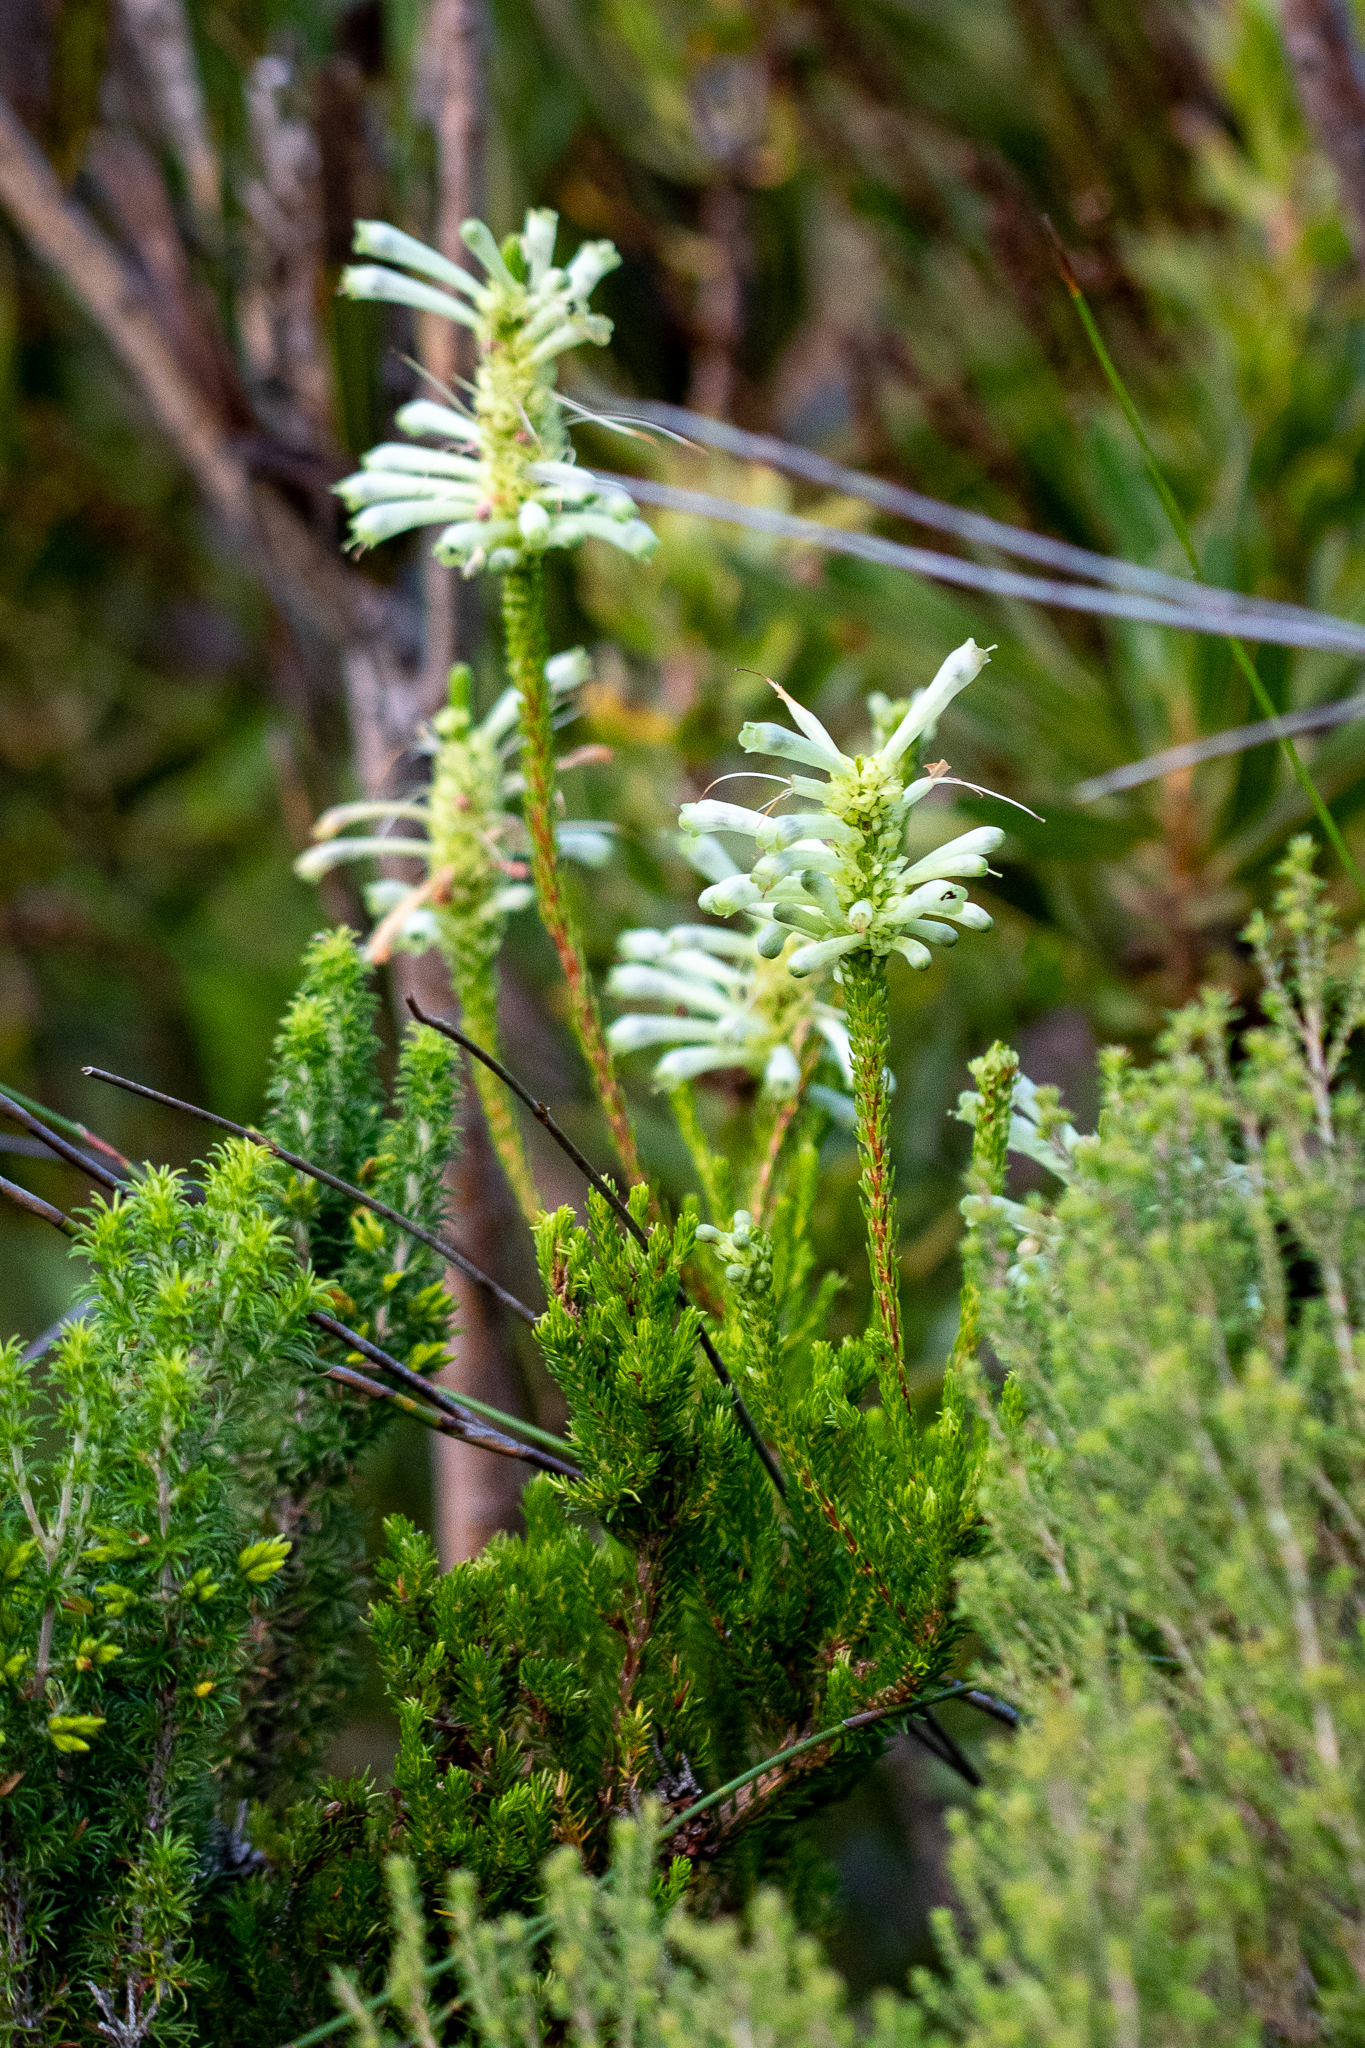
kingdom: Plantae
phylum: Tracheophyta
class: Magnoliopsida
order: Ericales
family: Ericaceae
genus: Erica
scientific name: Erica sessiliflora
